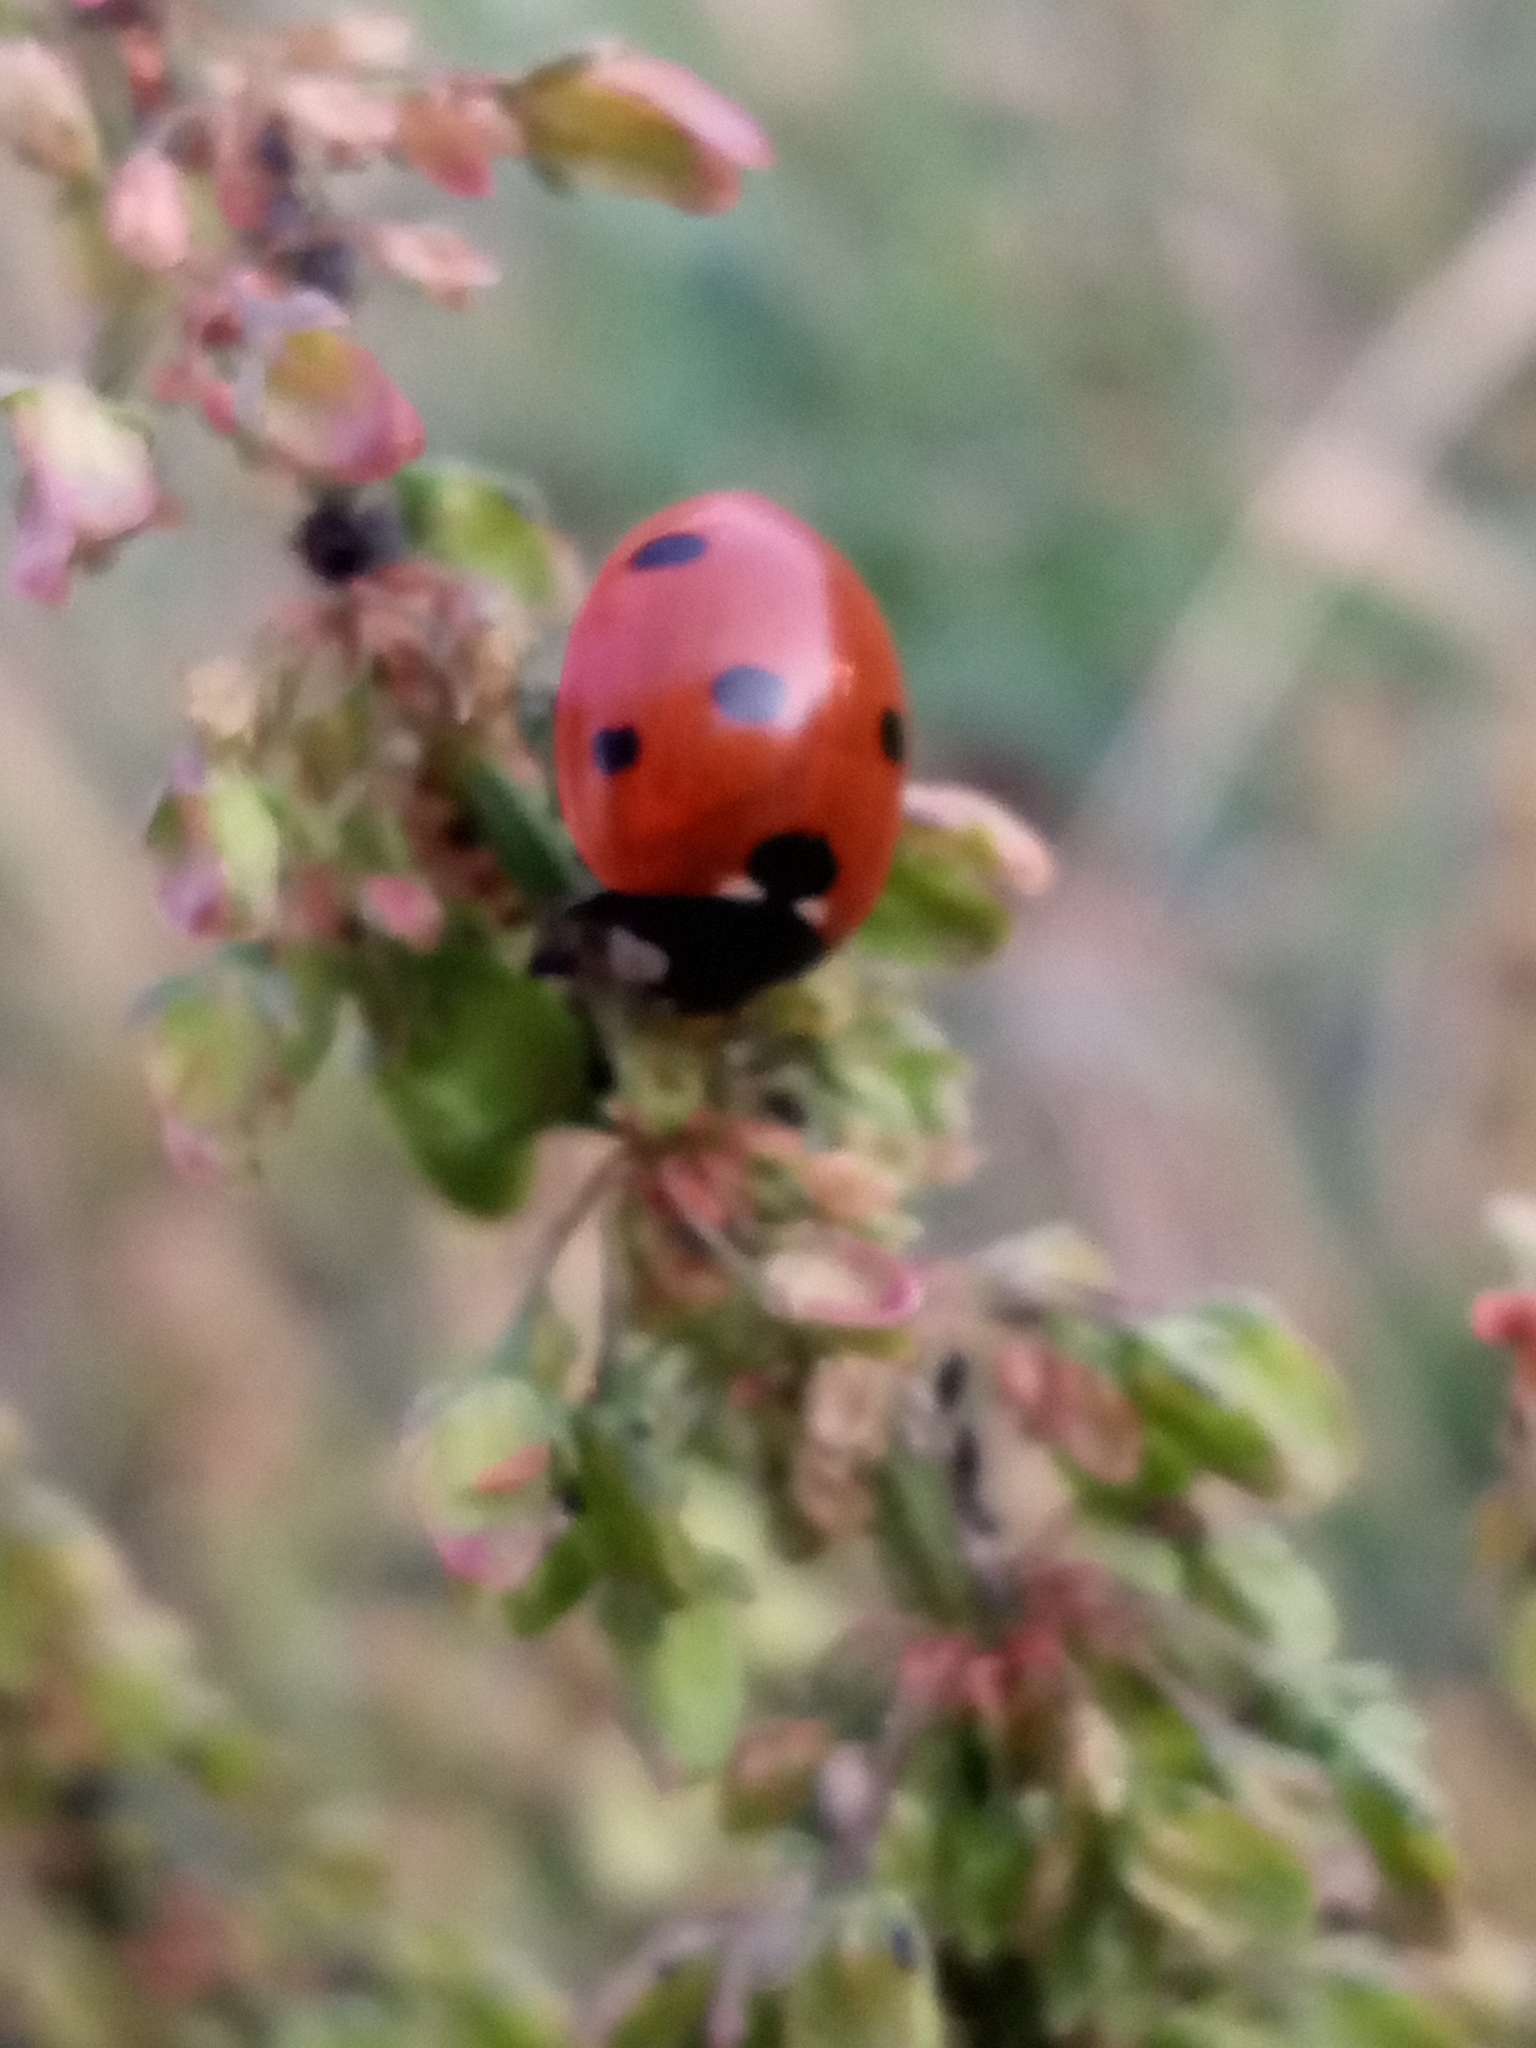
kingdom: Animalia
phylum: Arthropoda
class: Insecta
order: Coleoptera
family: Coccinellidae
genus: Coccinella
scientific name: Coccinella septempunctata
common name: Sevenspotted lady beetle
